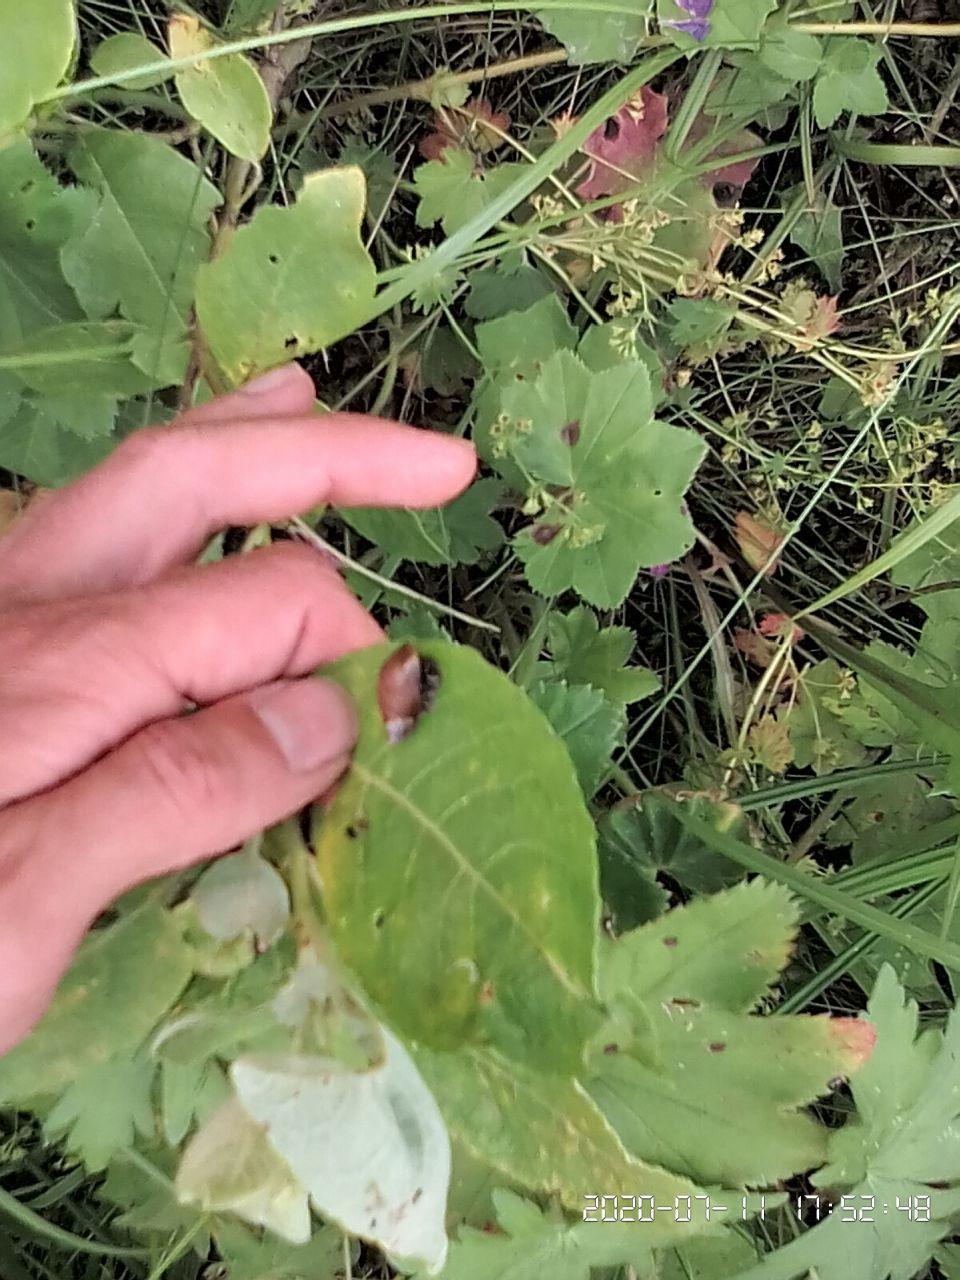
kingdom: Animalia
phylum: Mollusca
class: Gastropoda
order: Stylommatophora
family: Succineidae
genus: Succinea
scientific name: Succinea putris
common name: European ambersnail
